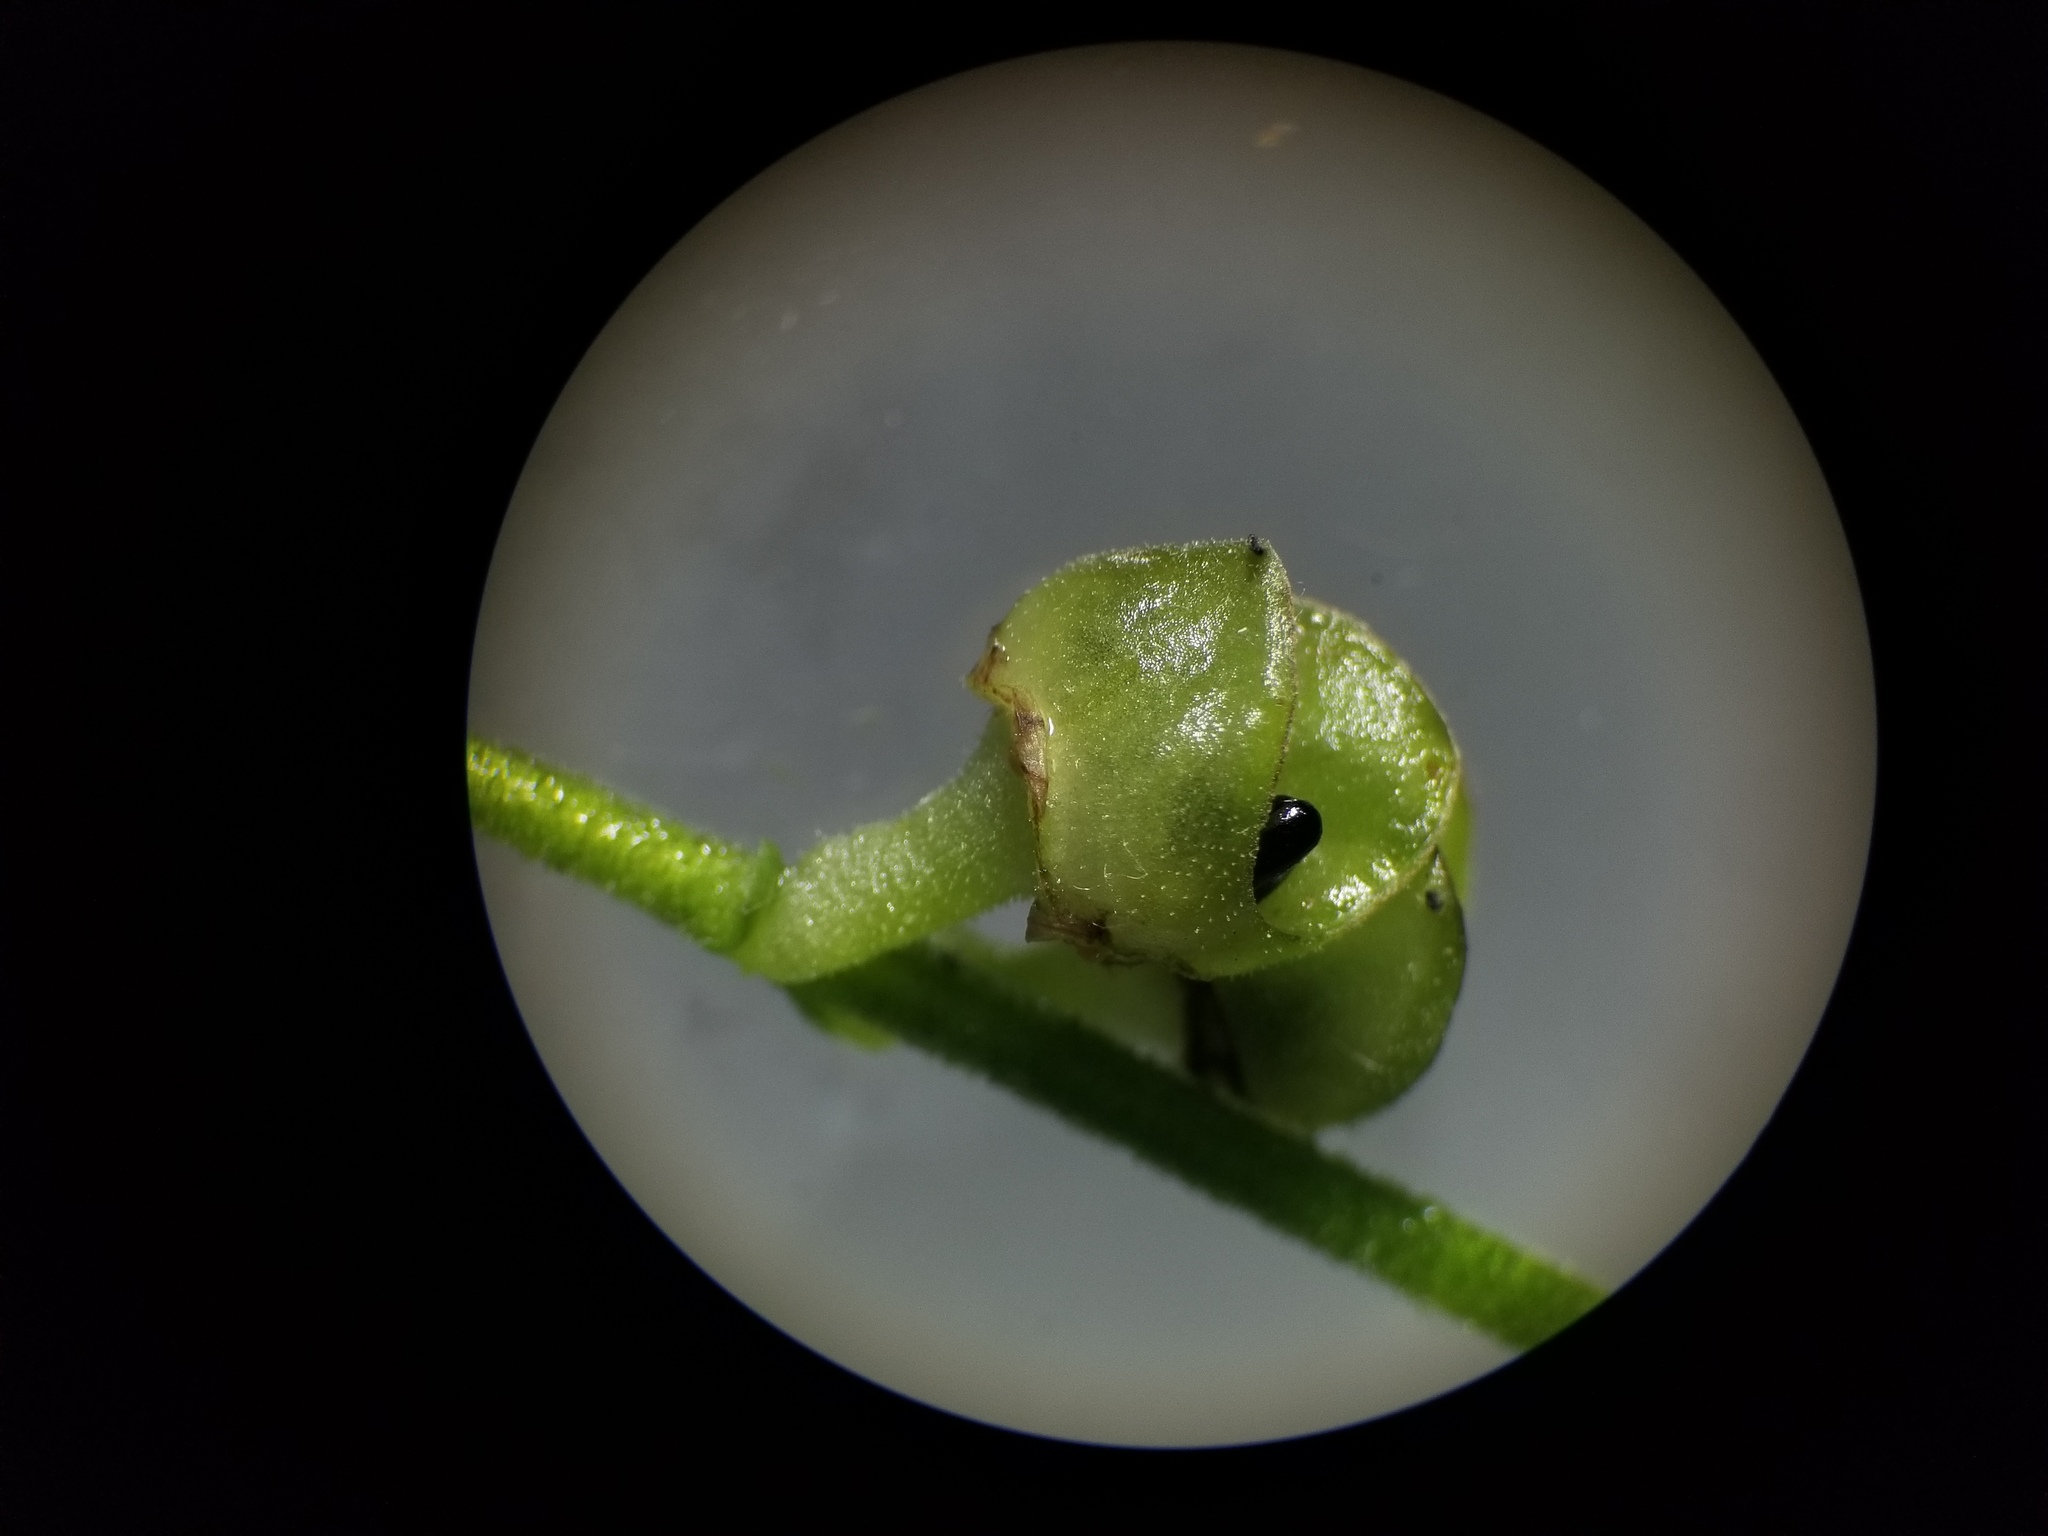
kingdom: Plantae
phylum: Tracheophyta
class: Magnoliopsida
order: Saxifragales
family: Saxifragaceae
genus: Mitella
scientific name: Mitella diphylla
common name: Coolwort
